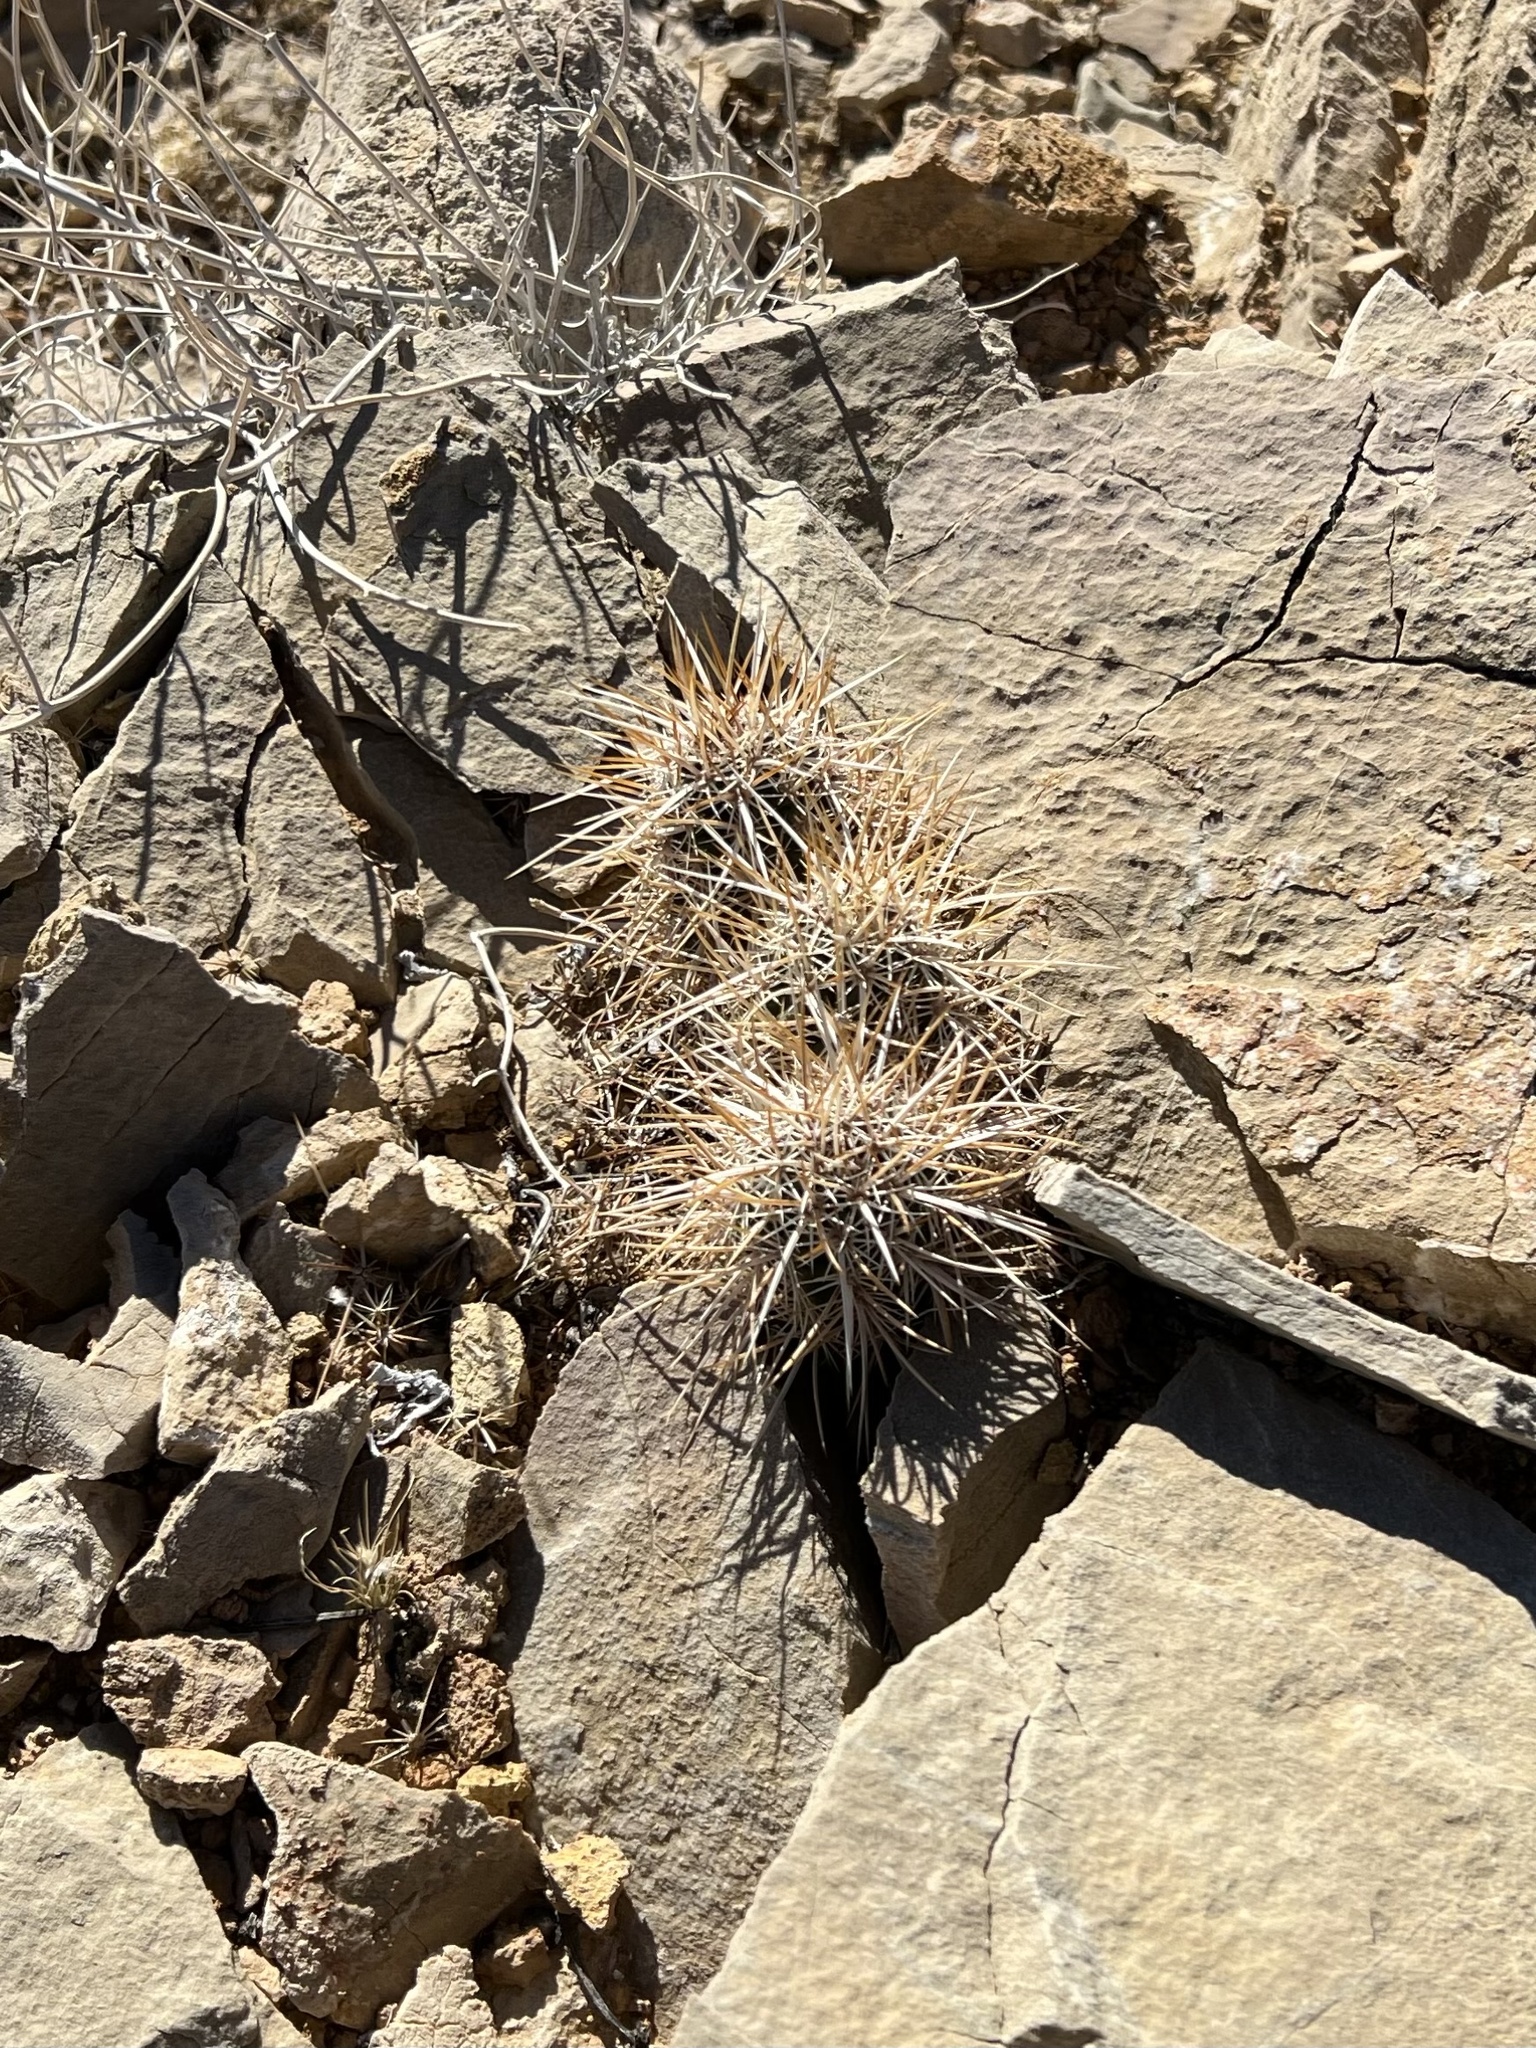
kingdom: Plantae
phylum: Tracheophyta
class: Magnoliopsida
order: Caryophyllales
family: Cactaceae
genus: Echinocereus
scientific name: Echinocereus engelmannii
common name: Engelmann's hedgehog cactus
